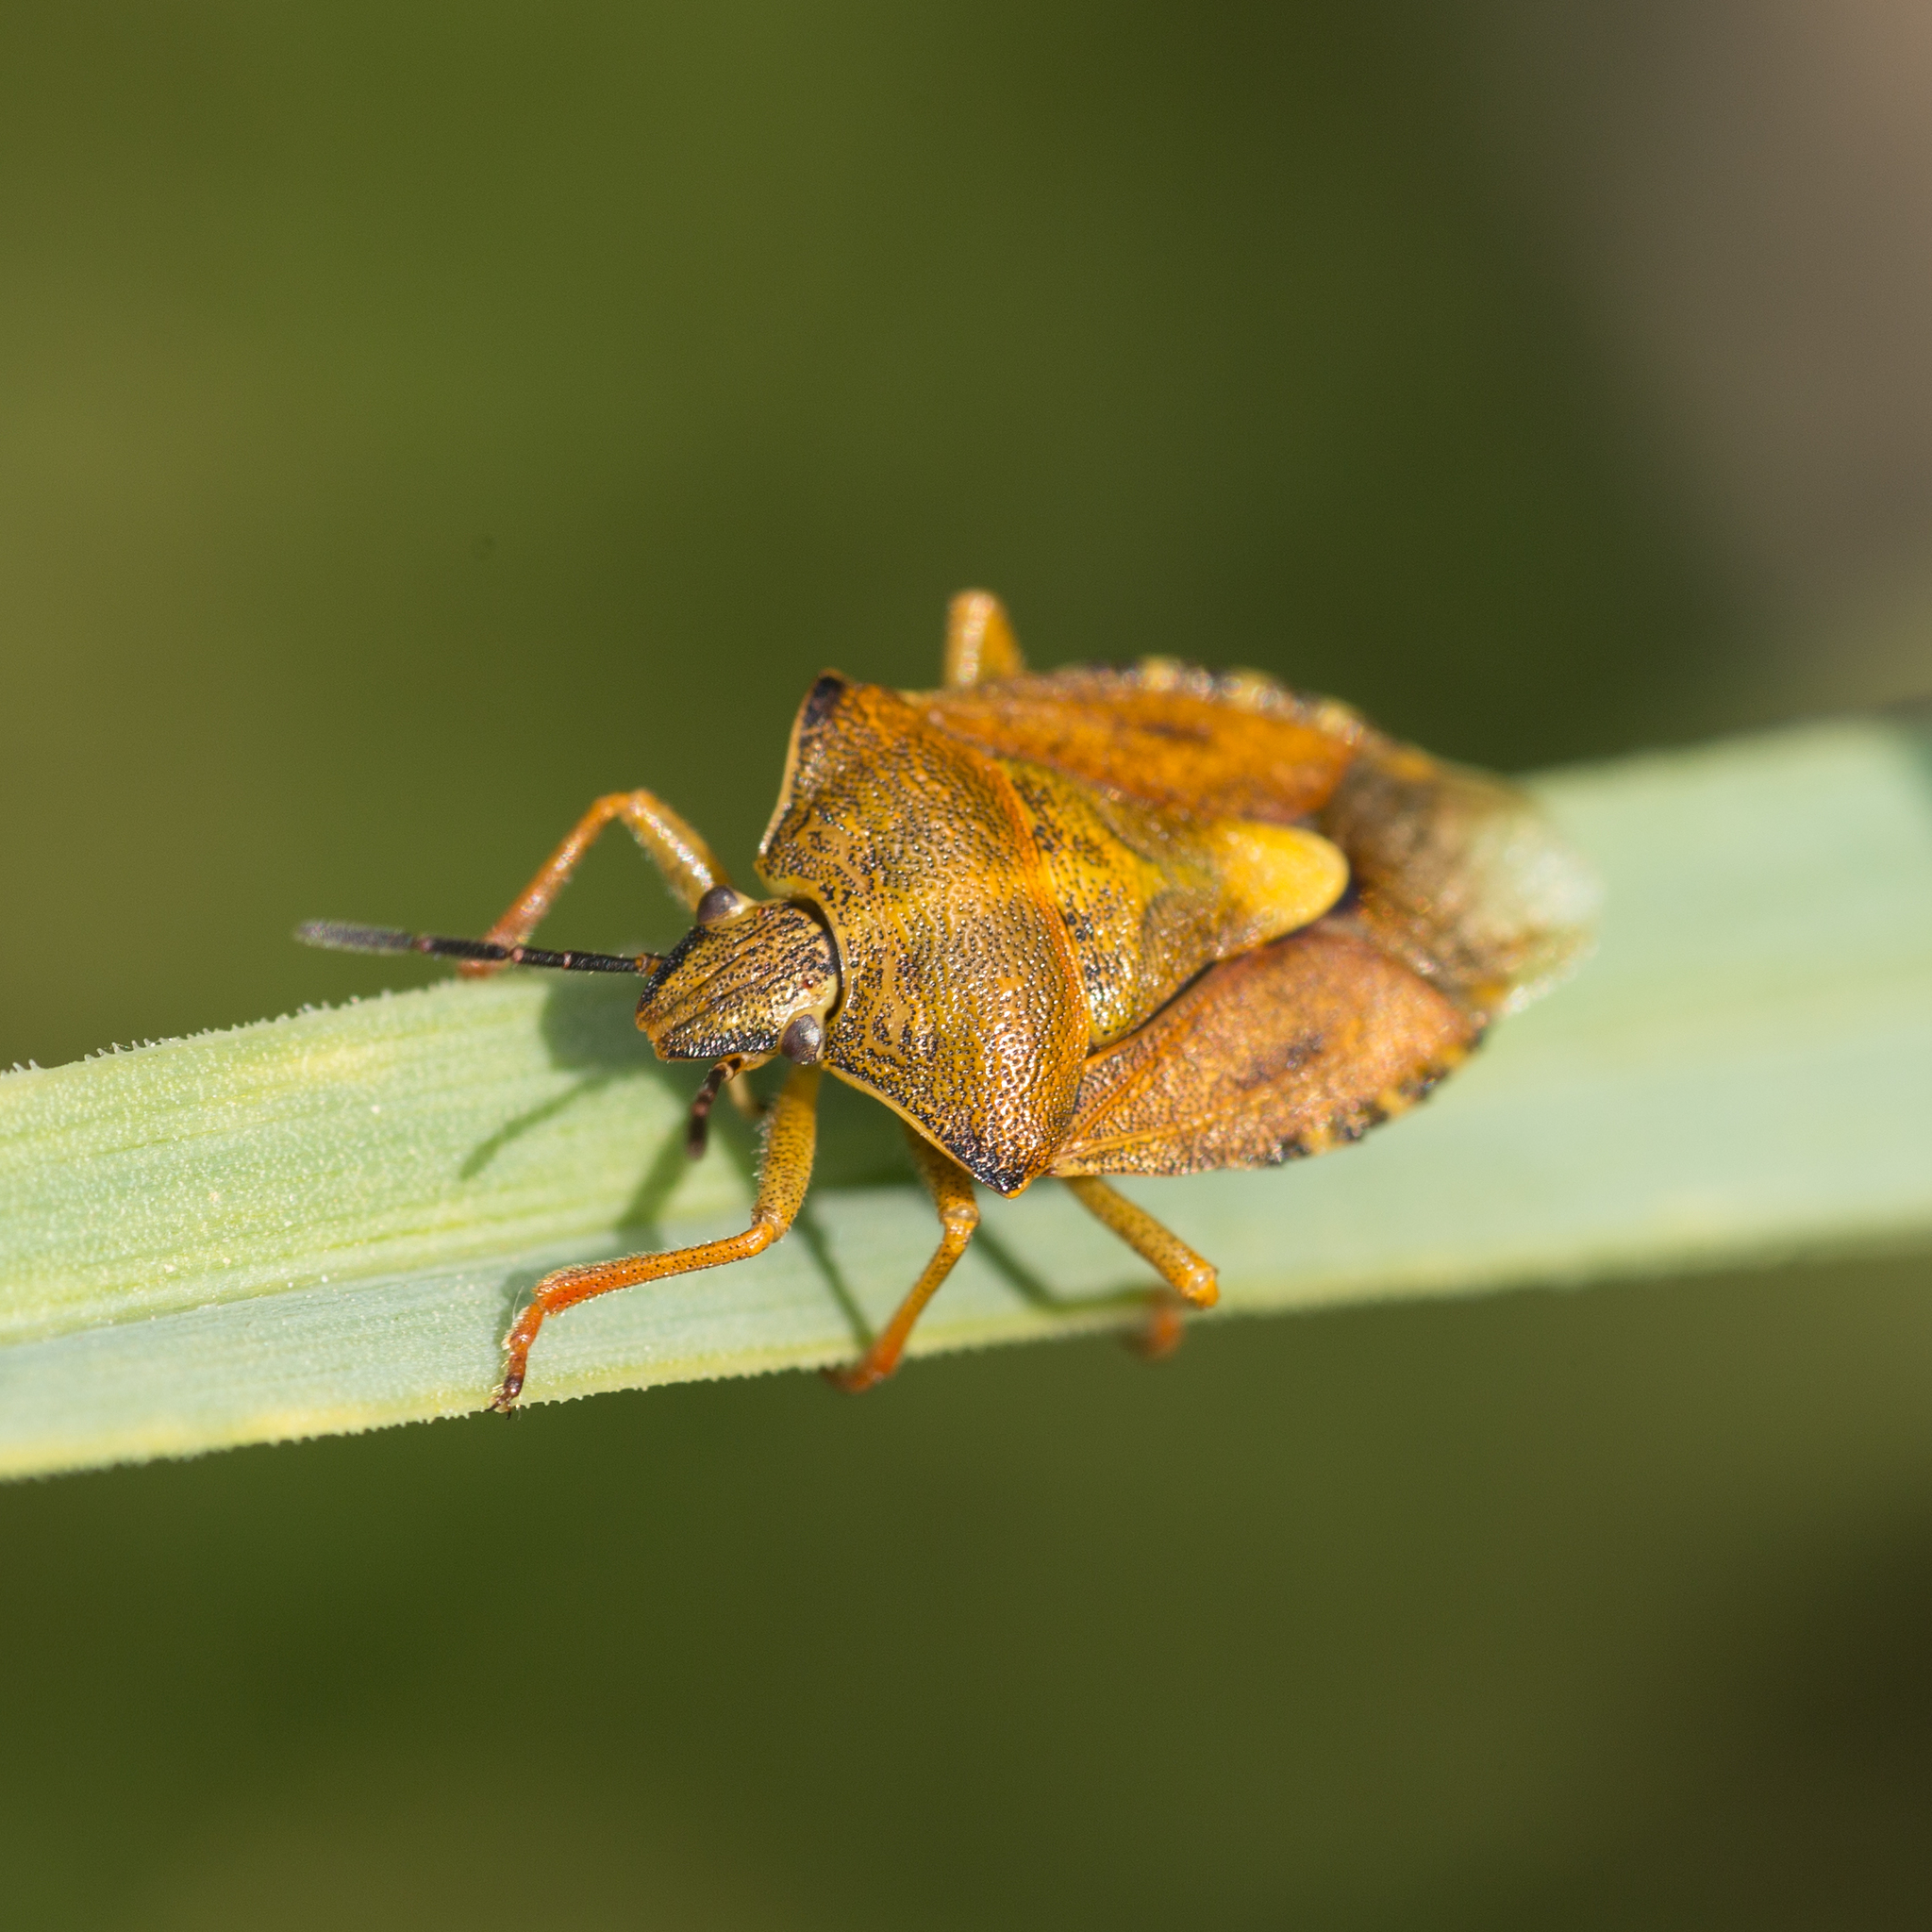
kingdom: Animalia
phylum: Arthropoda
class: Insecta
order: Hemiptera
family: Pentatomidae
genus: Carpocoris
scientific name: Carpocoris purpureipennis
